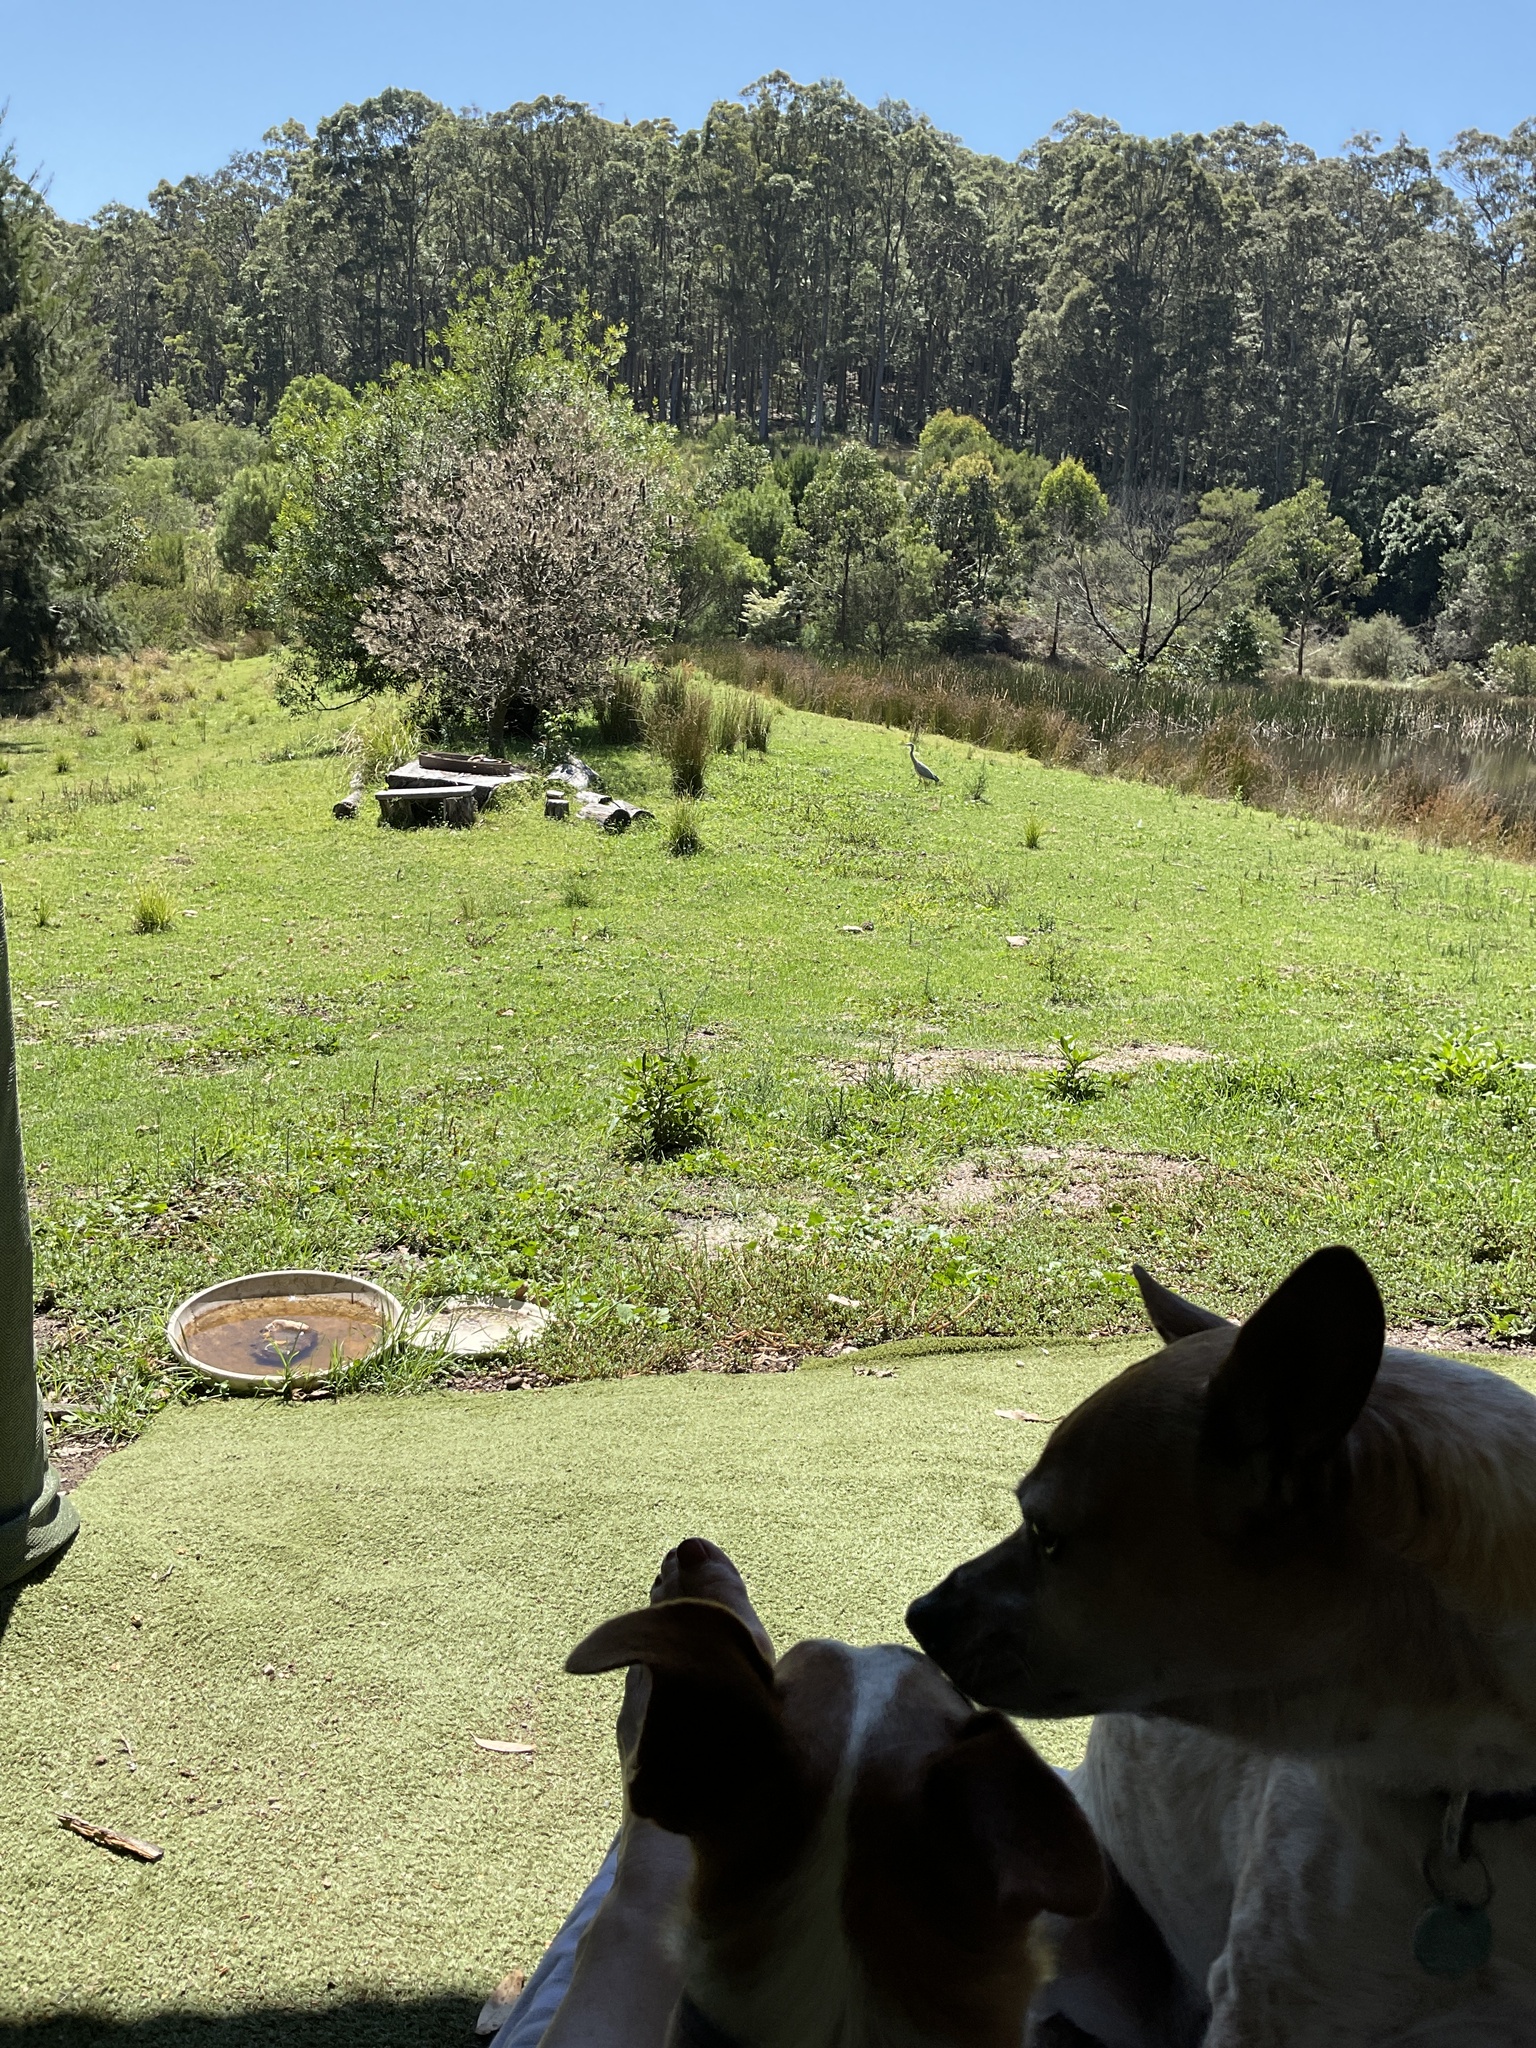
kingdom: Animalia
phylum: Chordata
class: Aves
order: Pelecaniformes
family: Ardeidae
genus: Egretta
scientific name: Egretta novaehollandiae
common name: White-faced heron
